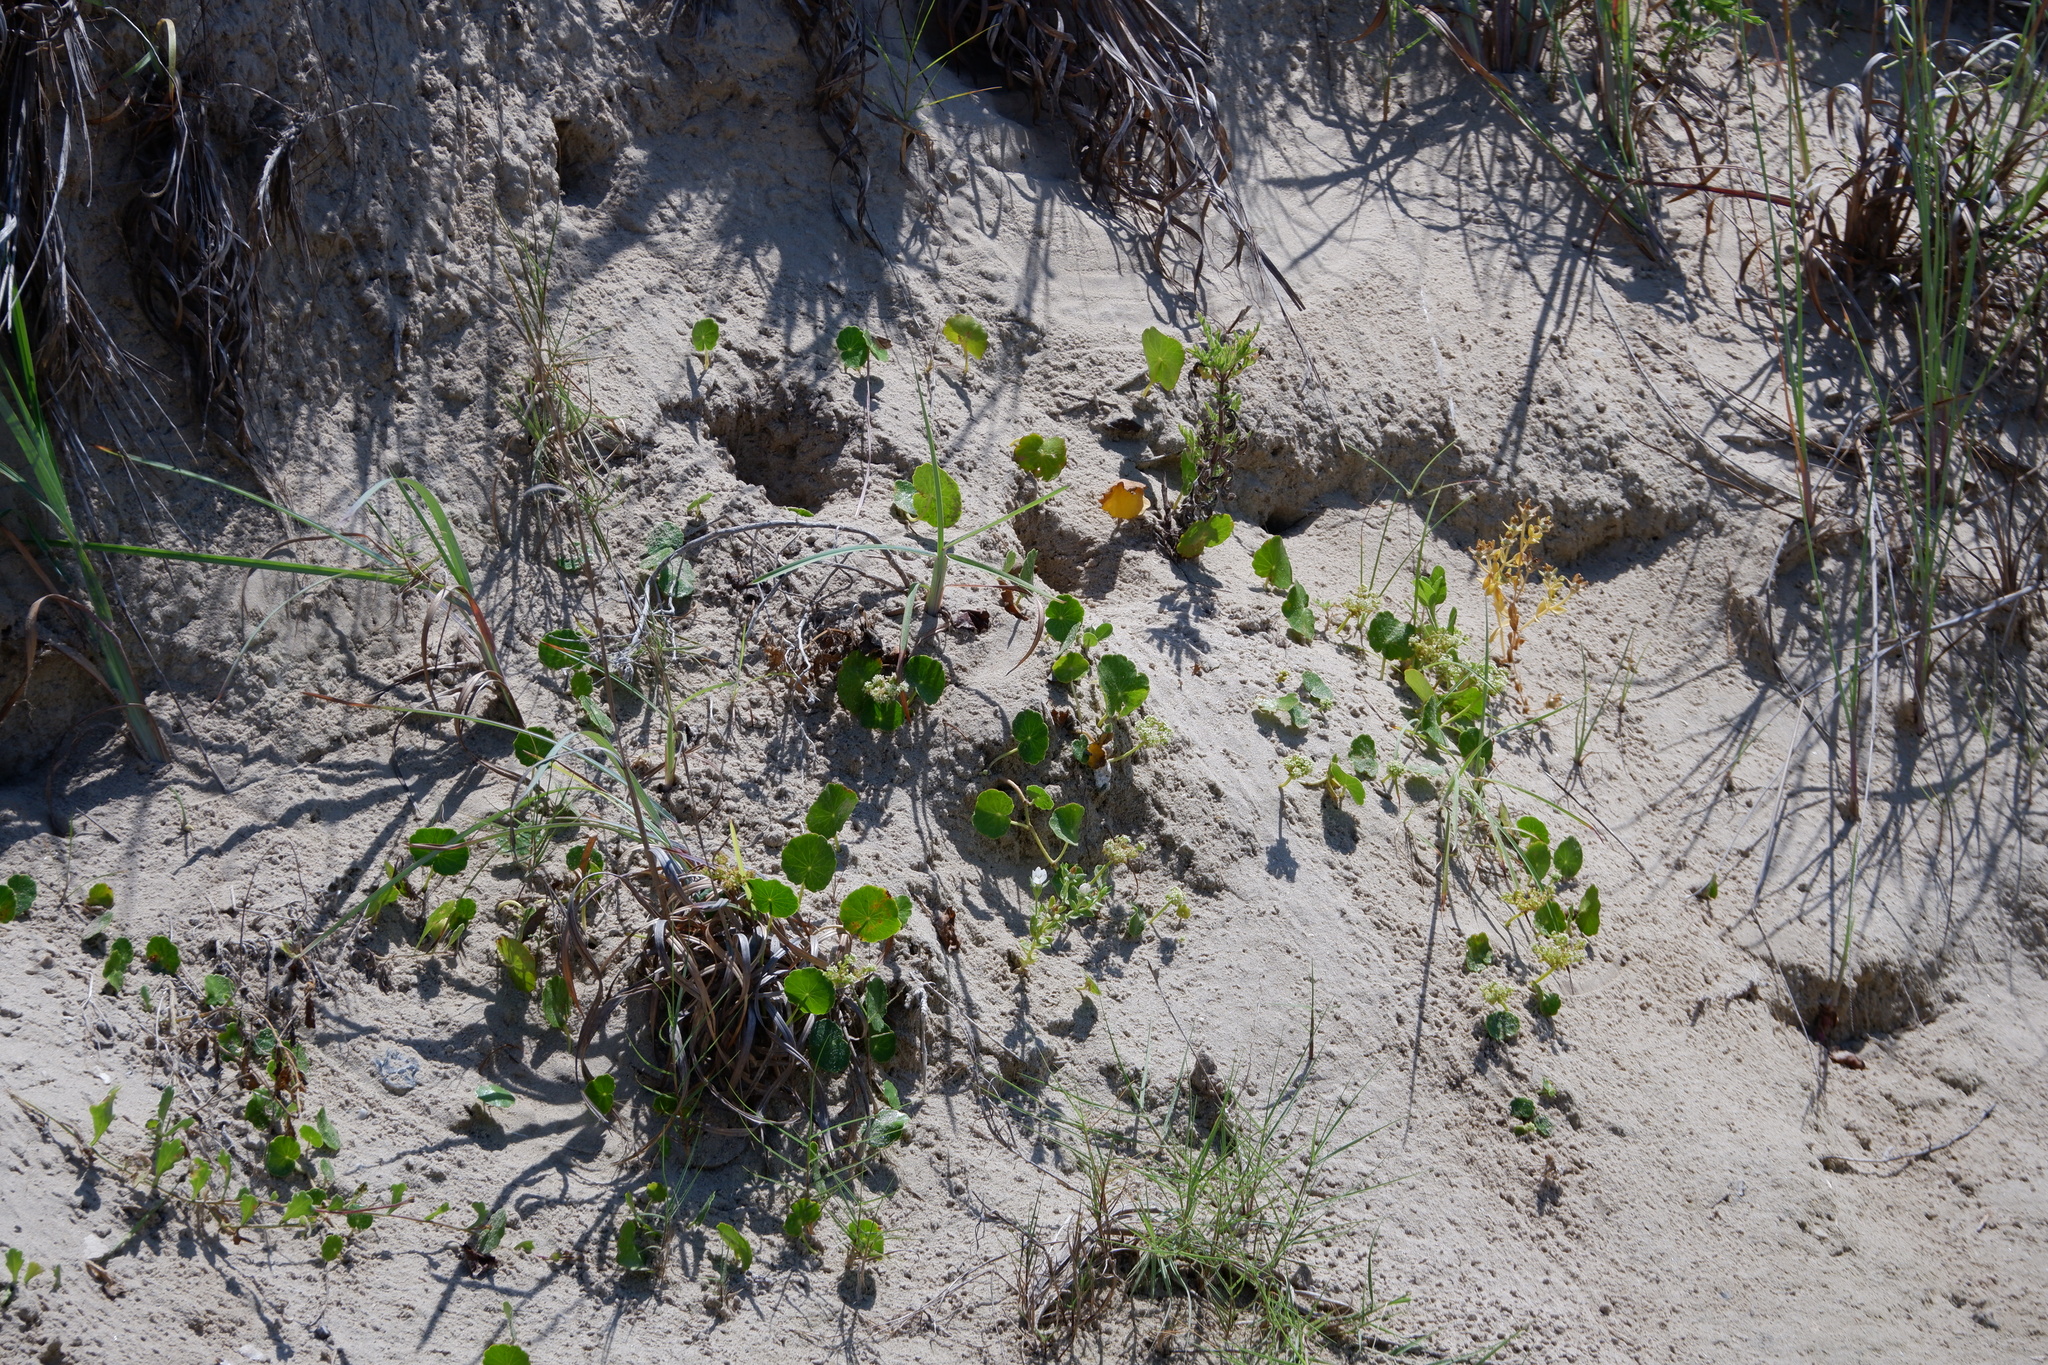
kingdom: Plantae
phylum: Tracheophyta
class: Magnoliopsida
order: Apiales
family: Araliaceae
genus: Hydrocotyle
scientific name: Hydrocotyle bonariensis
